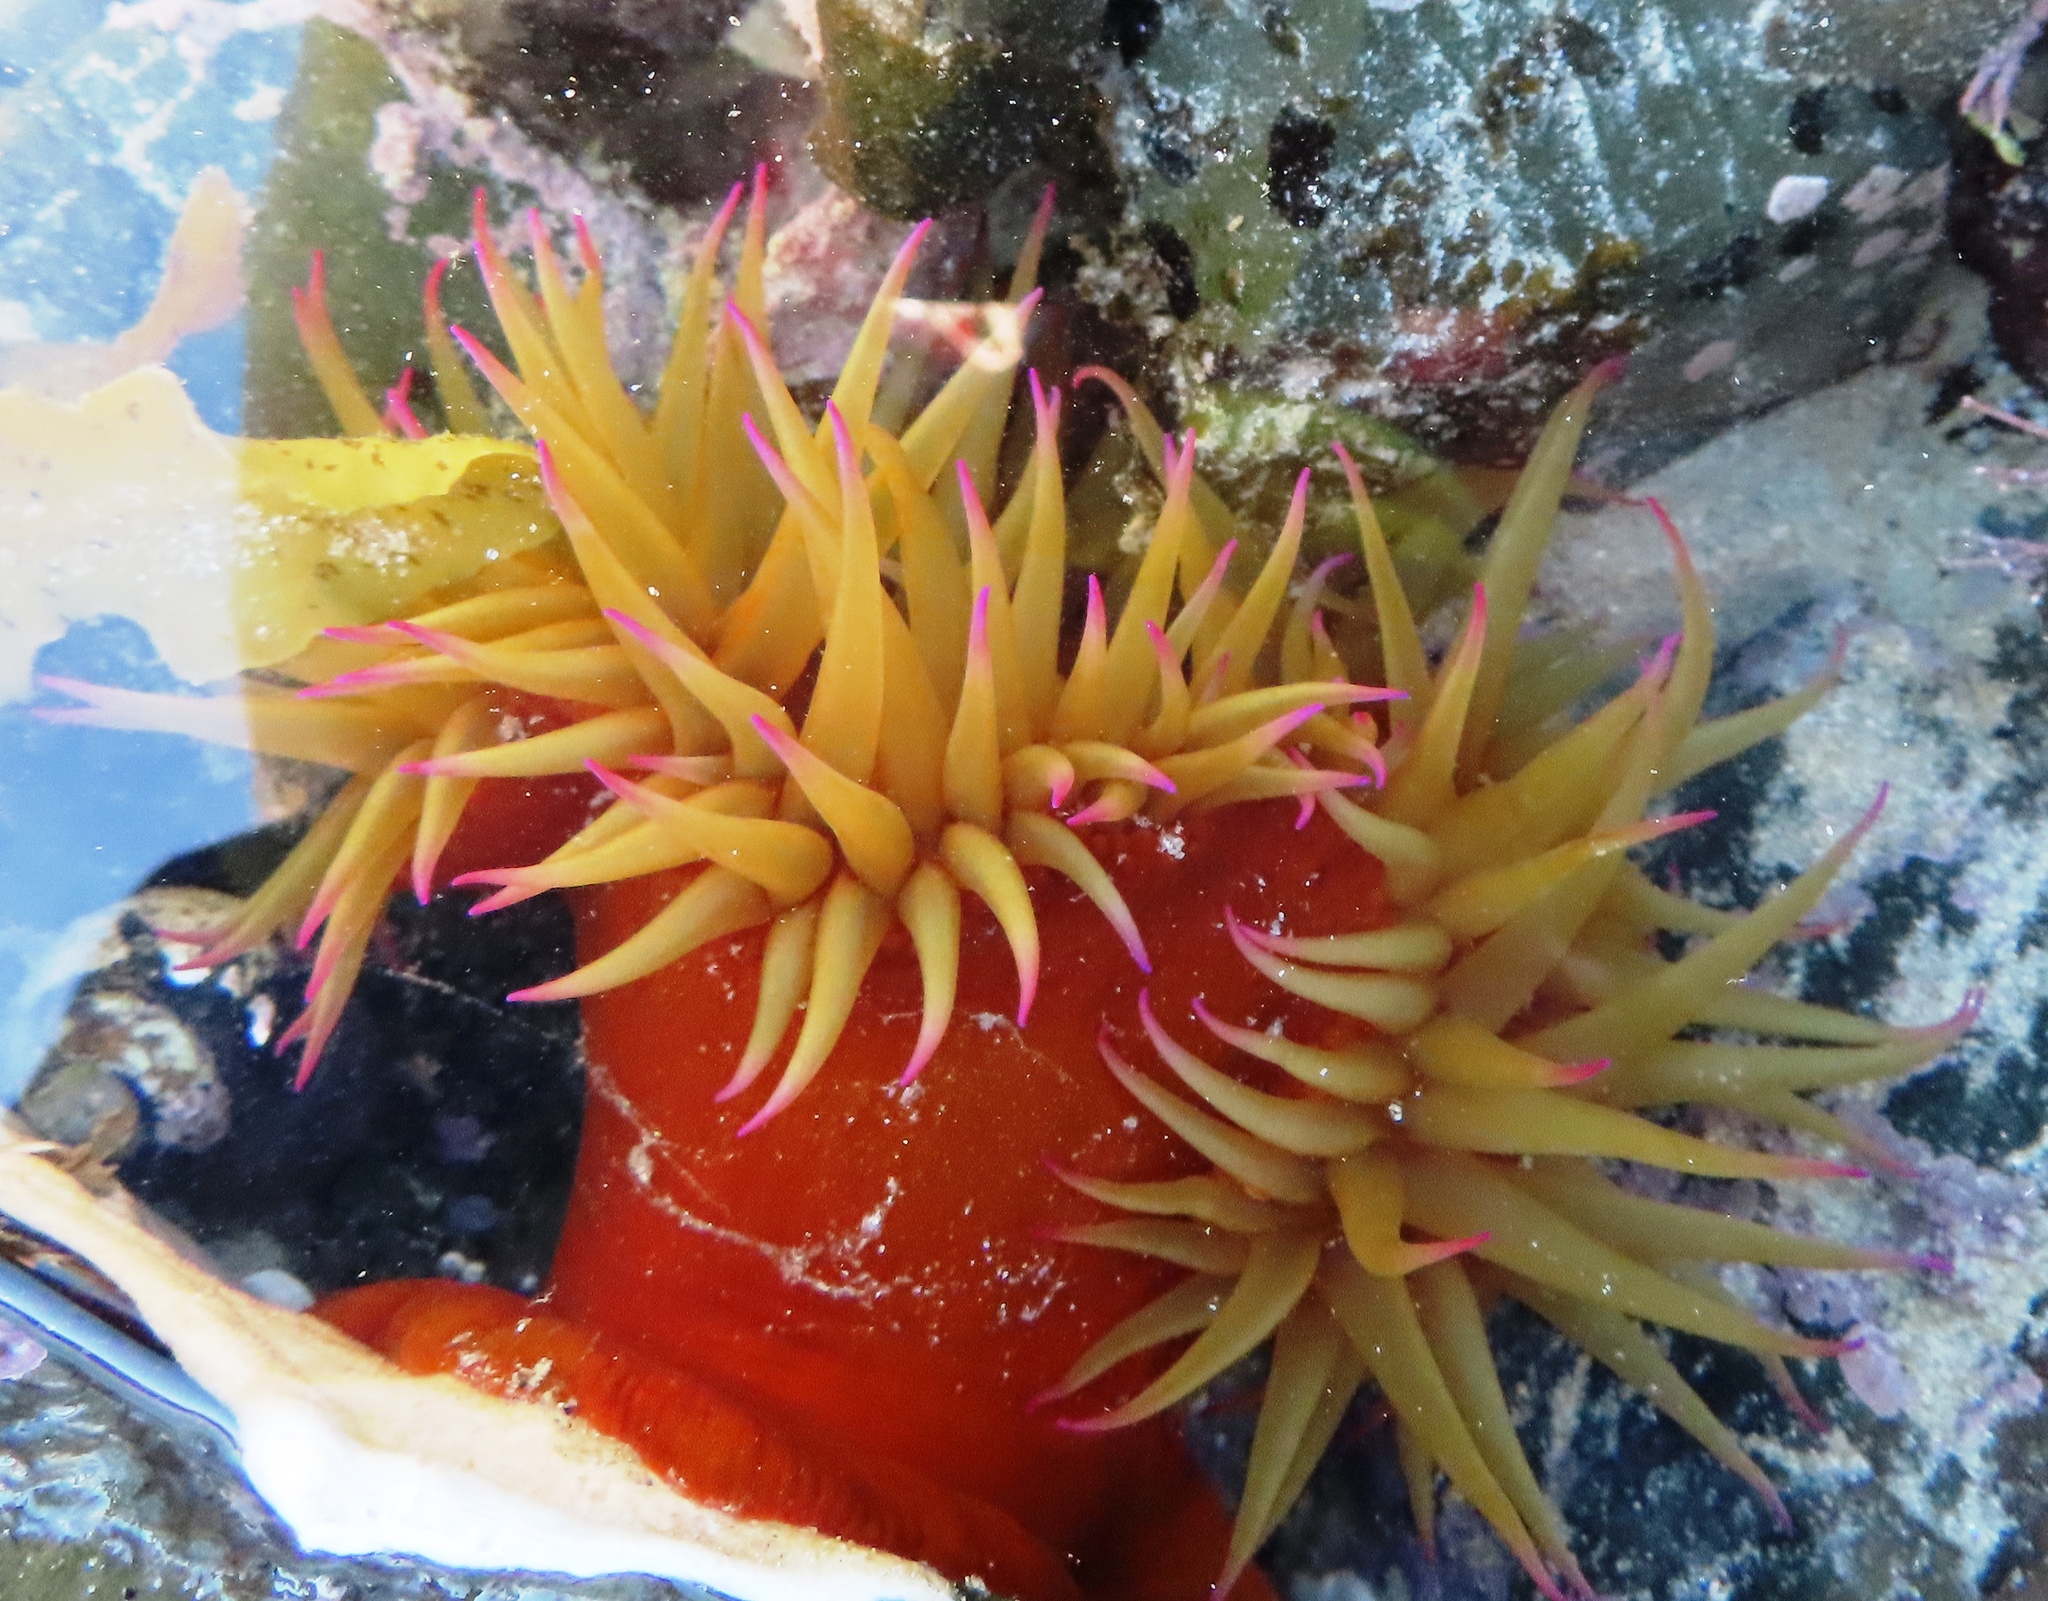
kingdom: Animalia
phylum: Cnidaria
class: Anthozoa
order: Actiniaria
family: Actiniidae
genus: Pseudactinia
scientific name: Pseudactinia flagellifera
